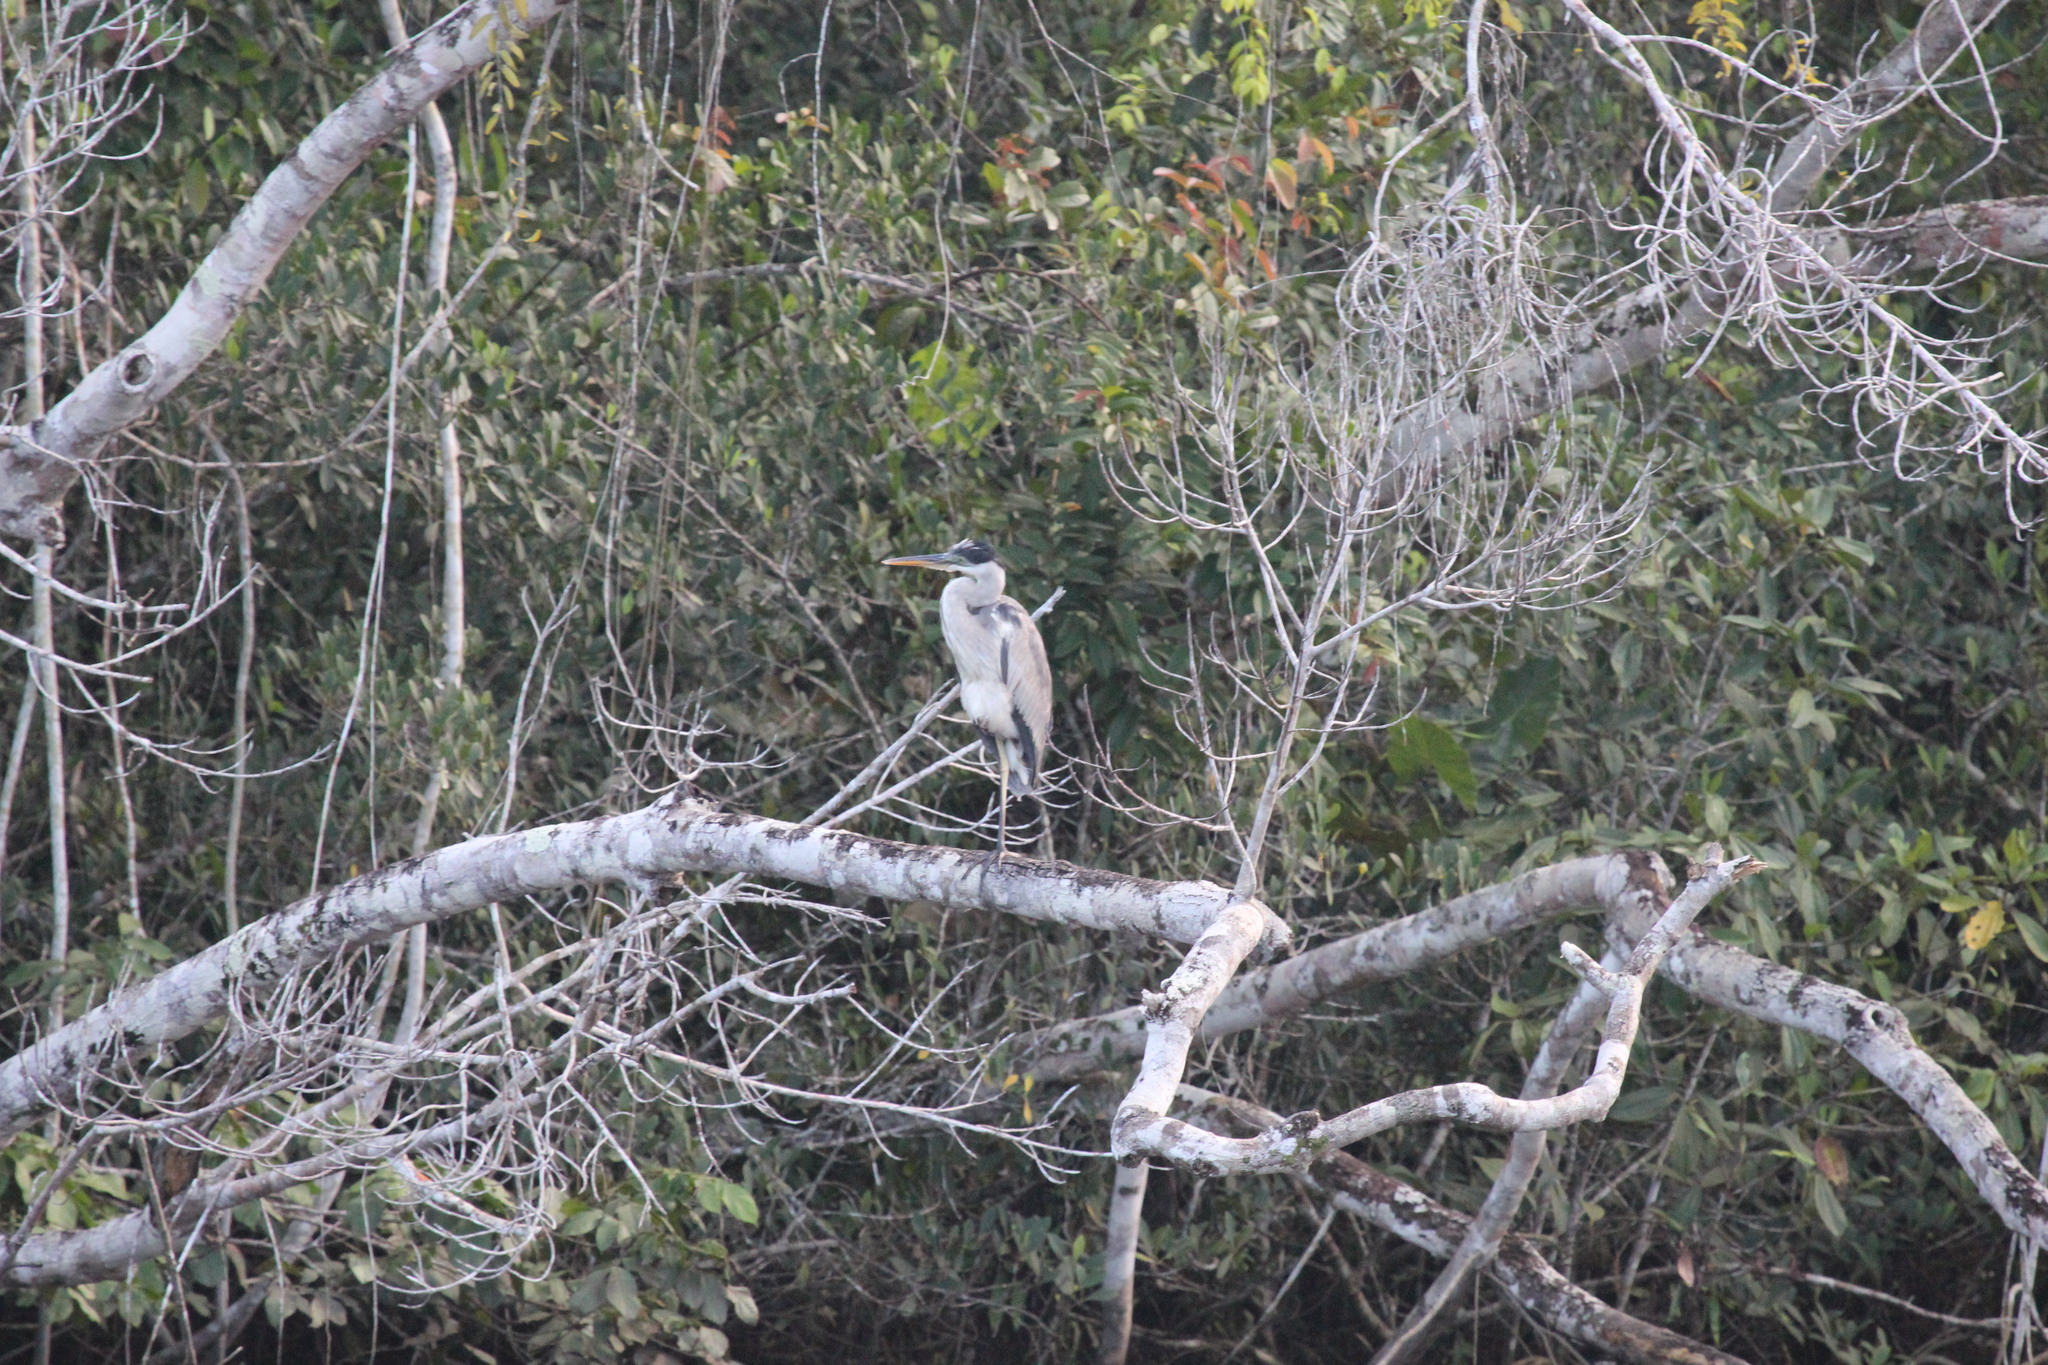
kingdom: Animalia
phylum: Chordata
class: Aves
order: Pelecaniformes
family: Ardeidae
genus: Ardea
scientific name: Ardea cocoi
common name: Cocoi heron
